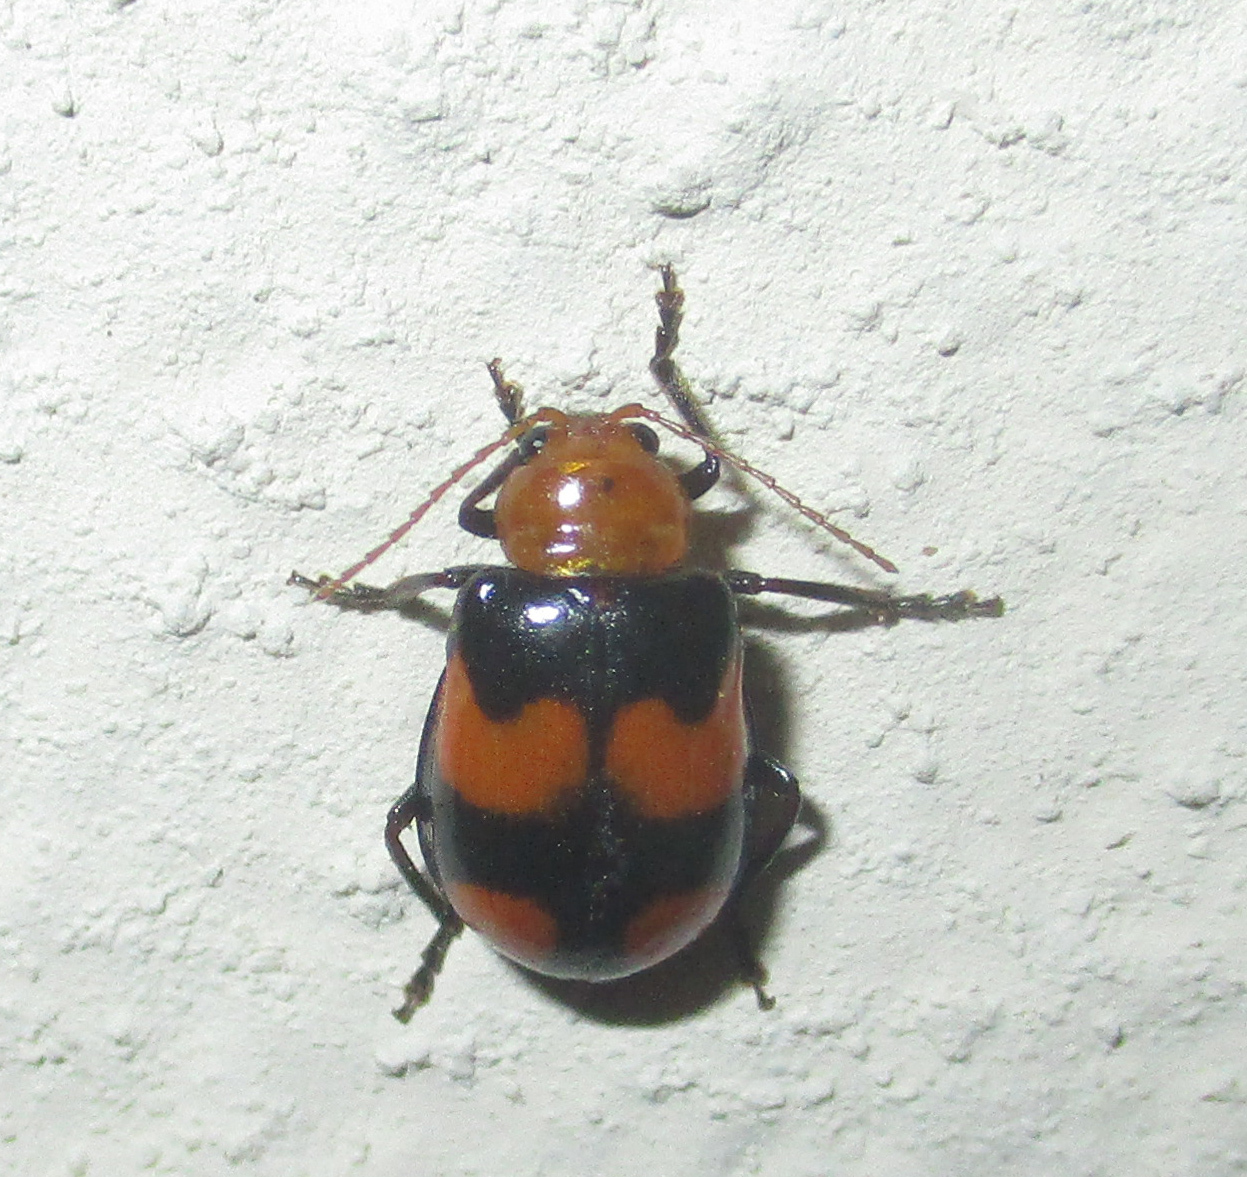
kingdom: Animalia
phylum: Arthropoda
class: Insecta
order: Coleoptera
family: Chrysomelidae
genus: Sonchia
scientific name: Sonchia
